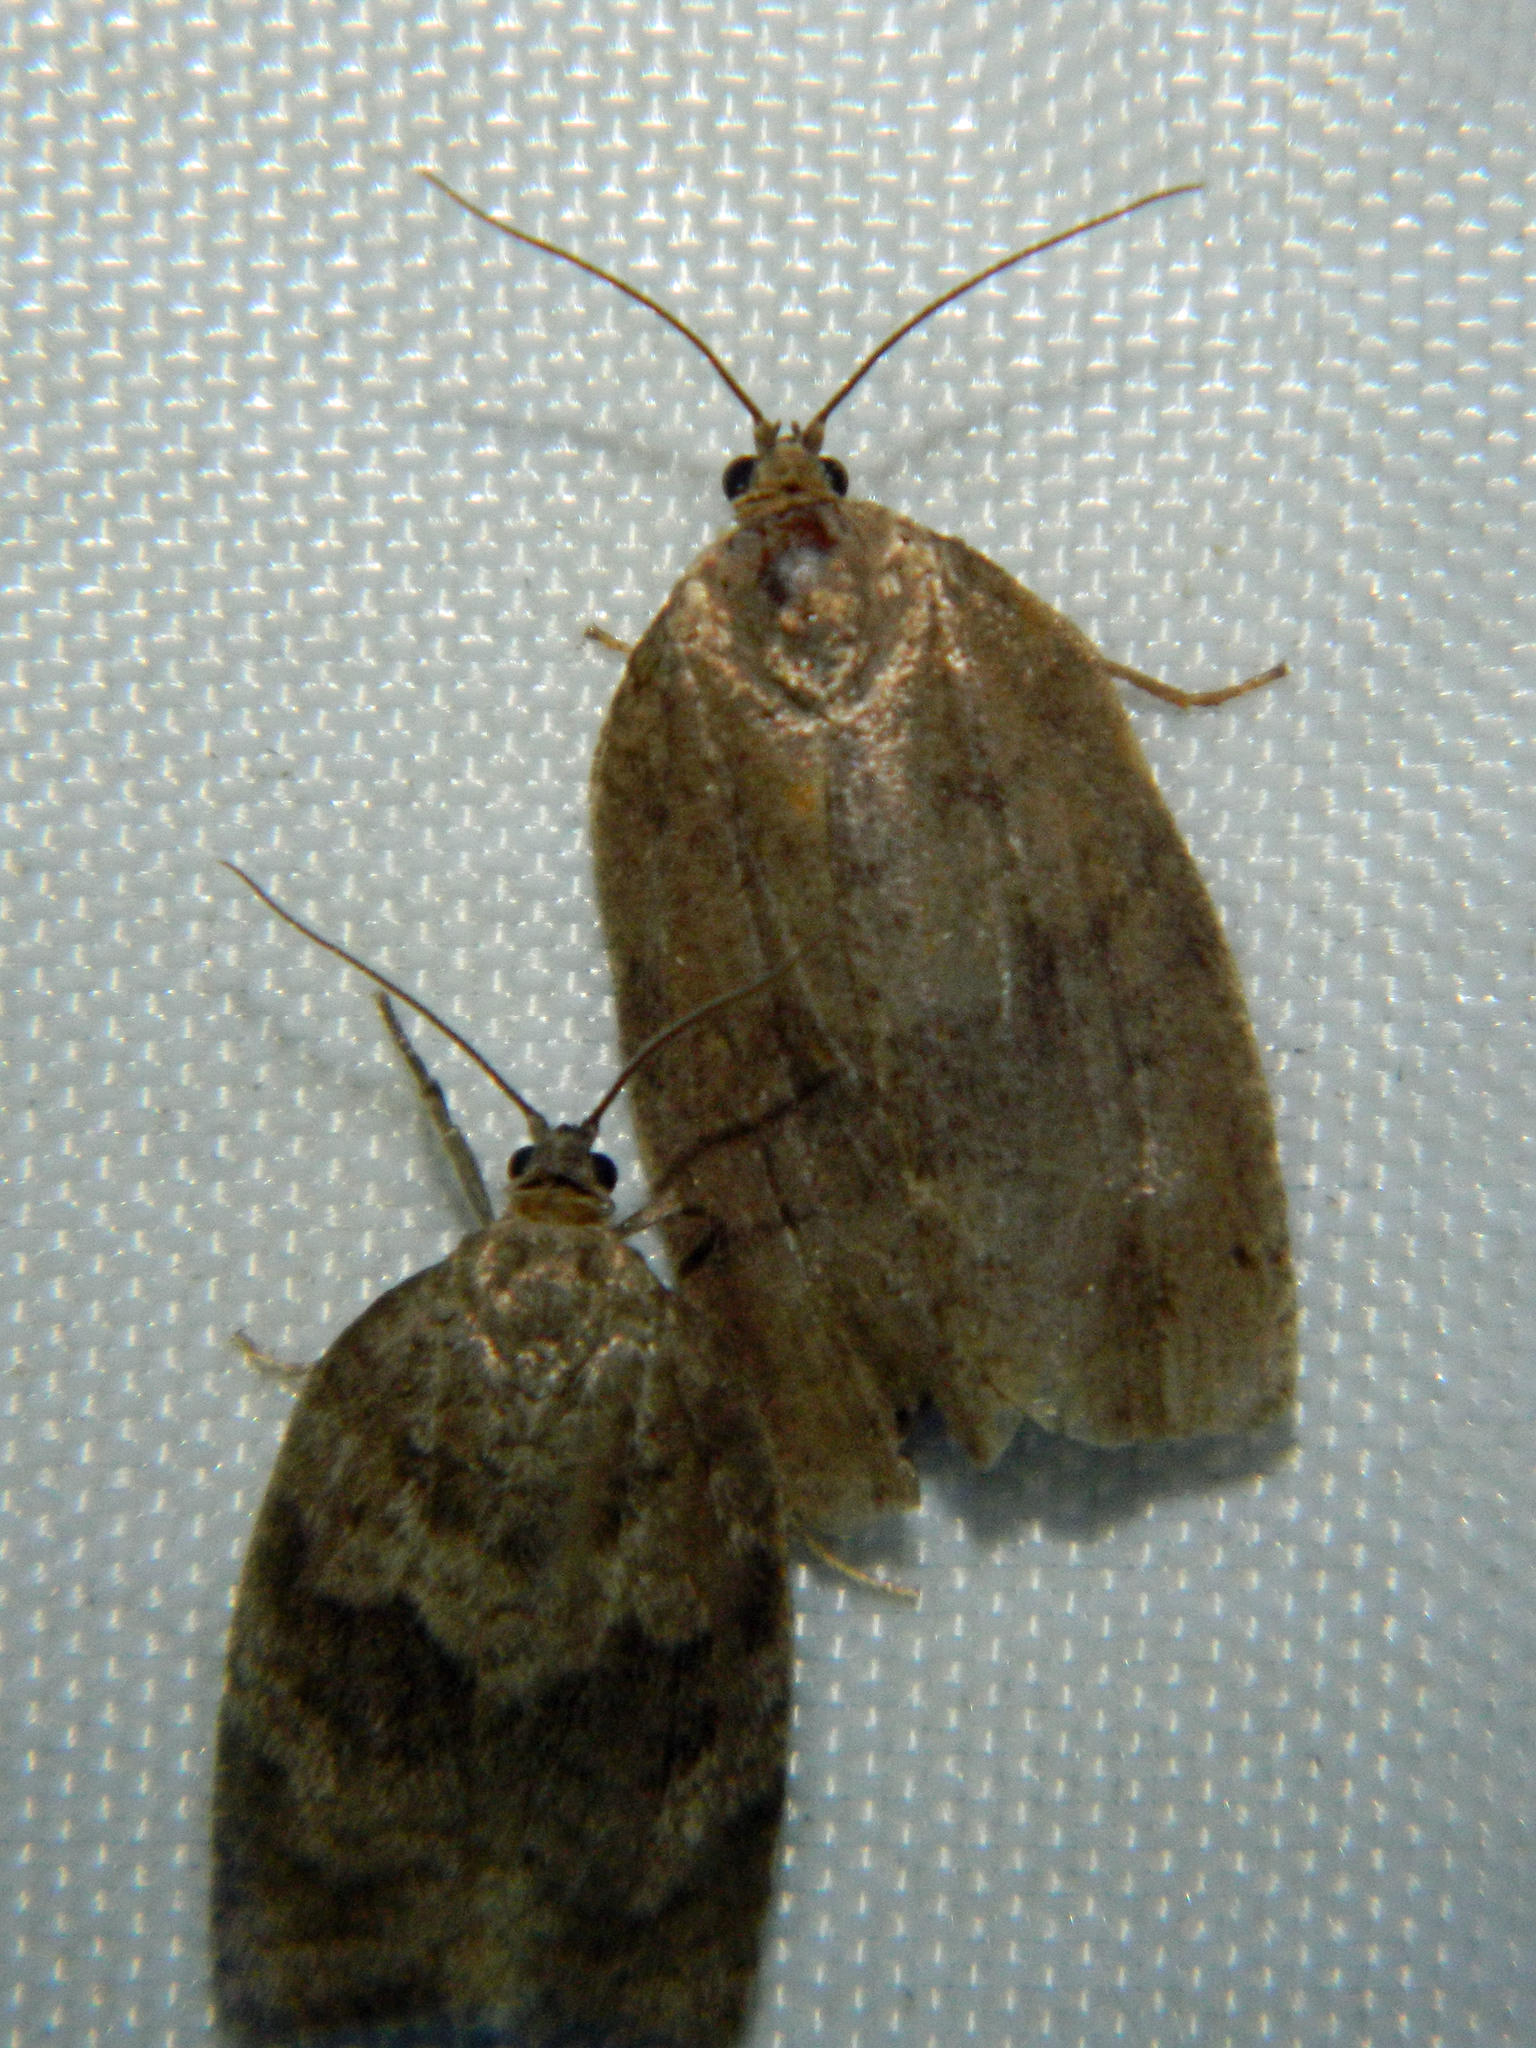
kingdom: Animalia
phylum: Arthropoda
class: Insecta
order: Lepidoptera
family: Tortricidae
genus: Choristoneura
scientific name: Choristoneura conflictana
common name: Large aspen tortrix
